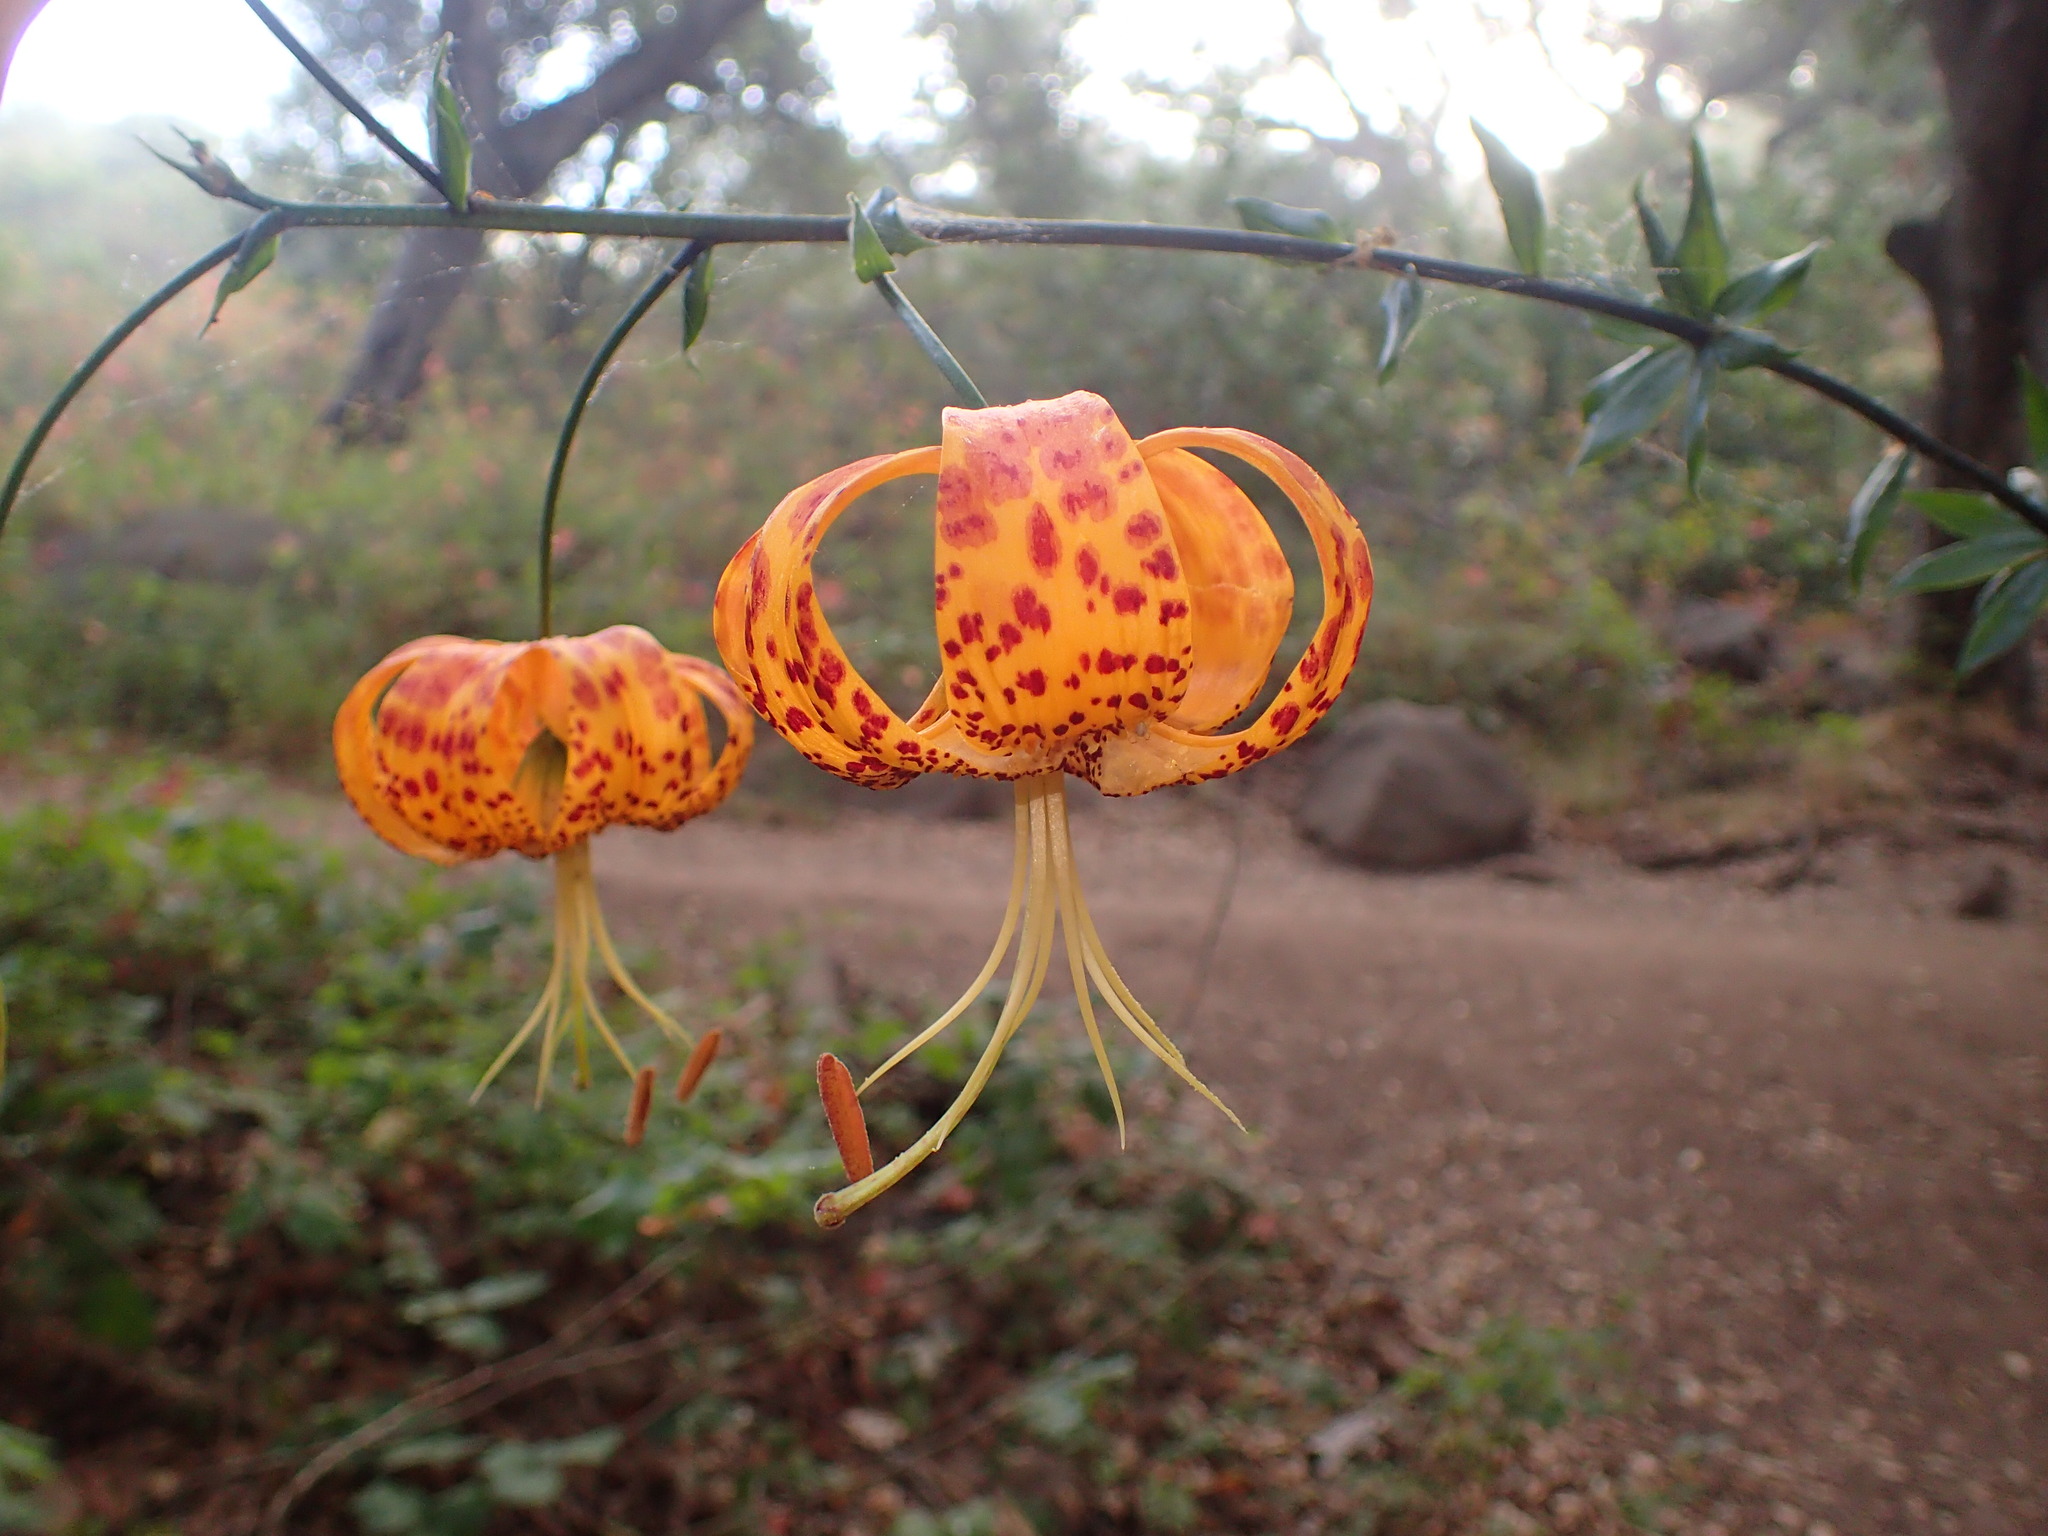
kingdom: Plantae
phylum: Tracheophyta
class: Liliopsida
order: Liliales
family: Liliaceae
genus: Lilium
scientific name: Lilium humboldtii
